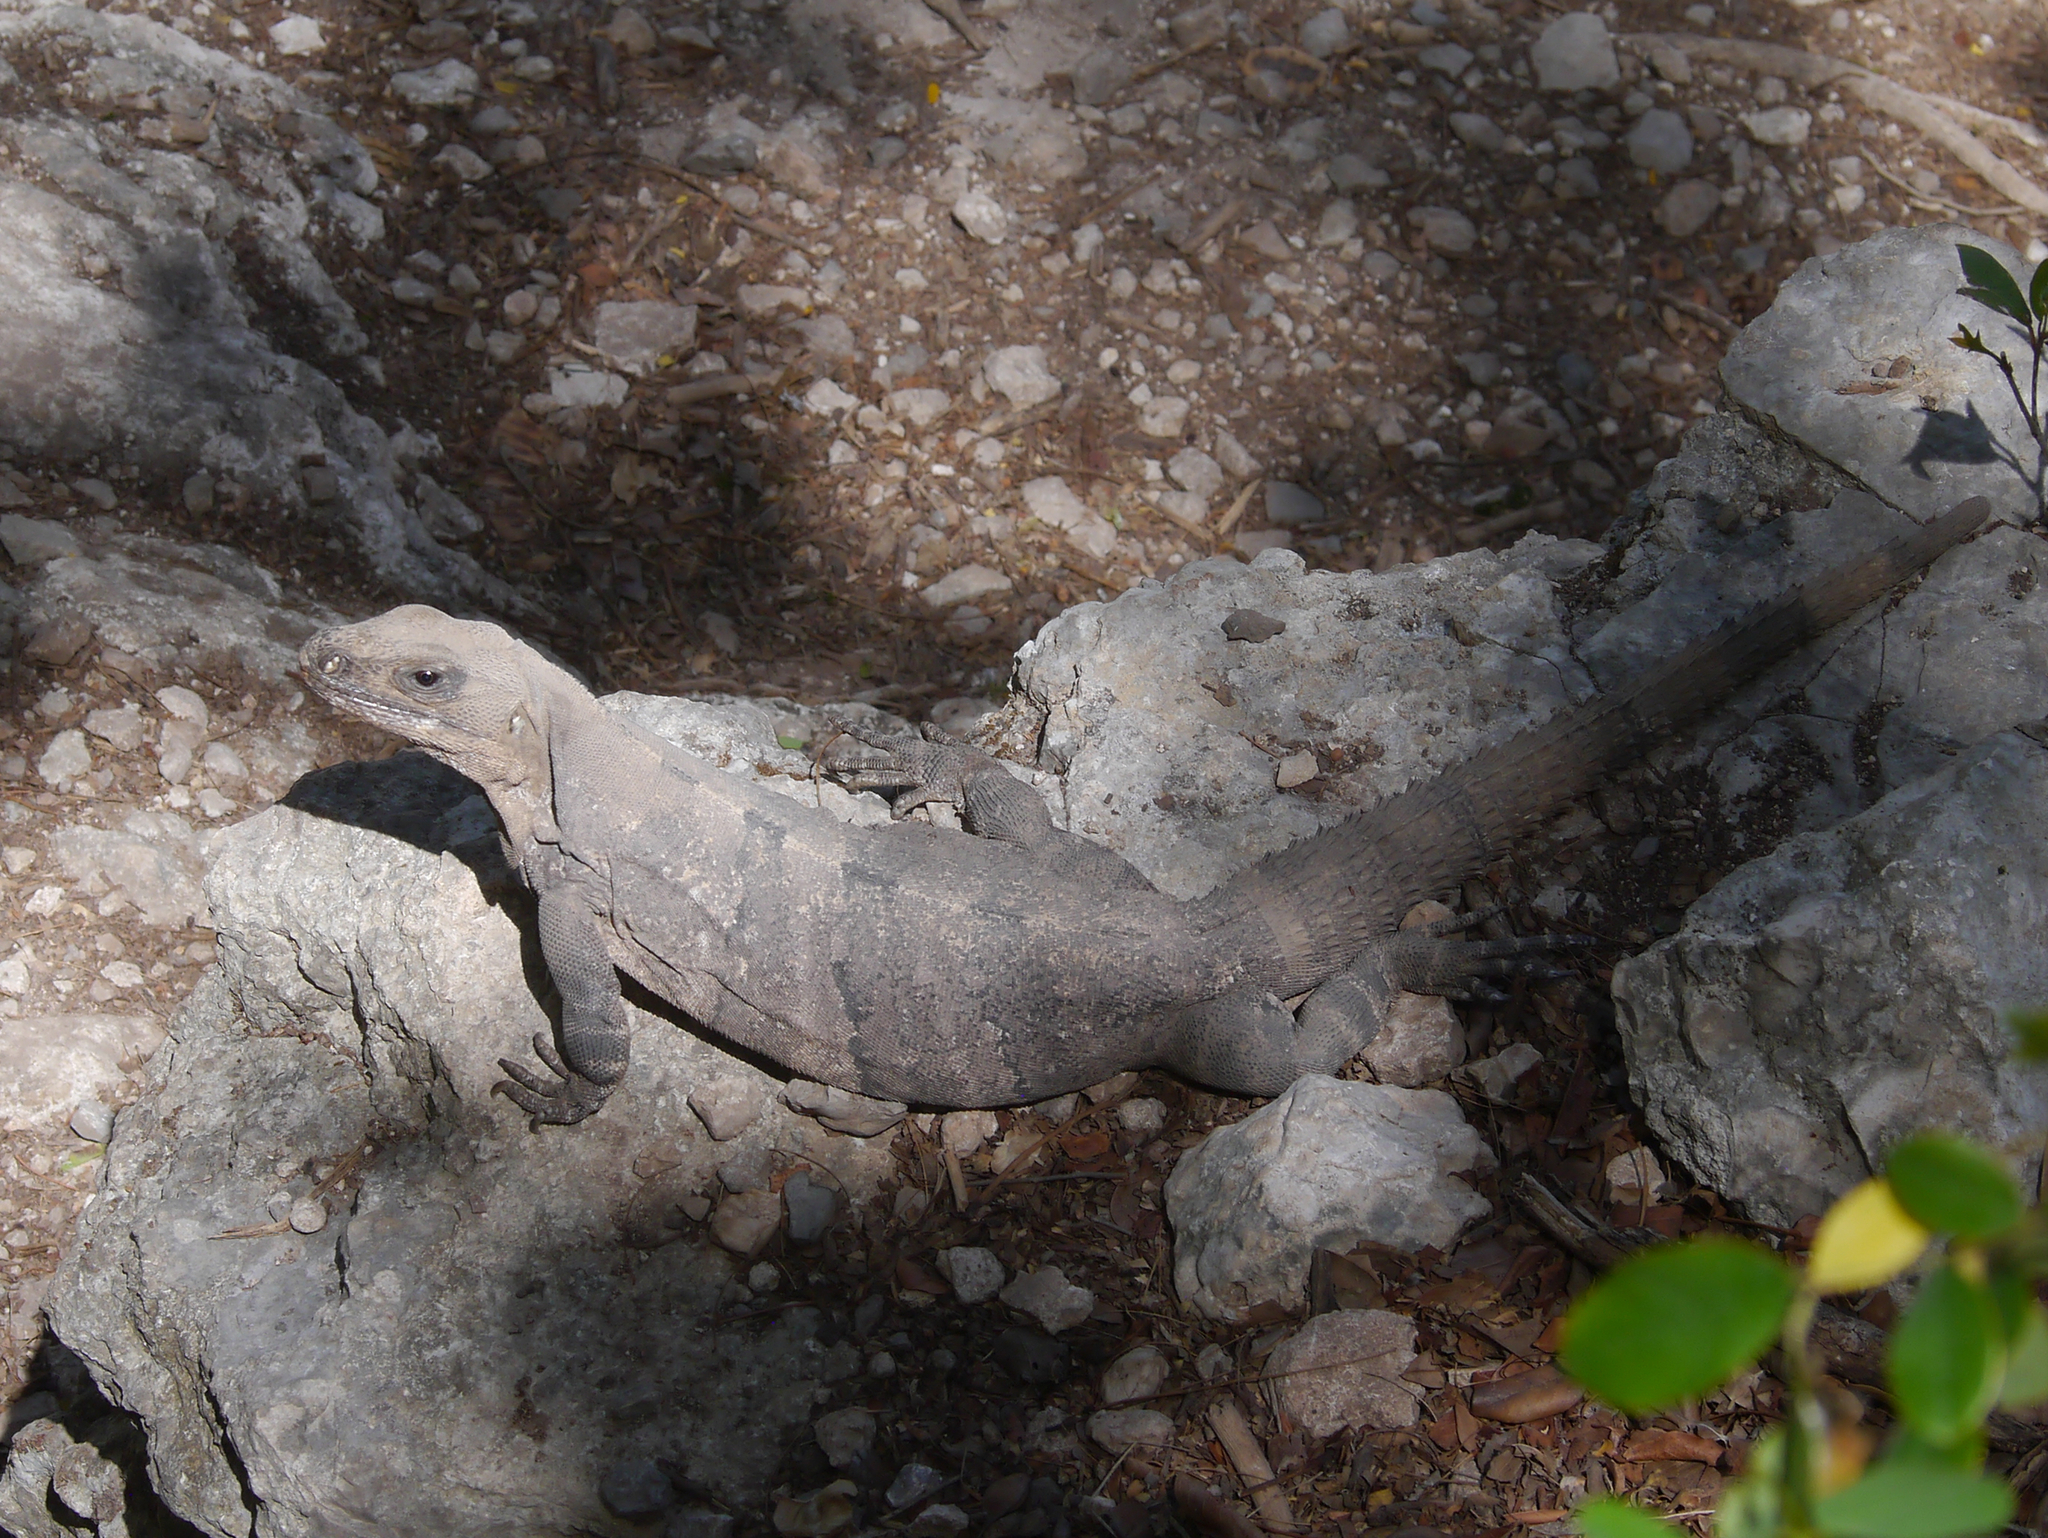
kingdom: Animalia
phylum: Chordata
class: Squamata
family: Iguanidae
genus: Ctenosaura
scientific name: Ctenosaura similis
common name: Black spiny-tailed iguana
